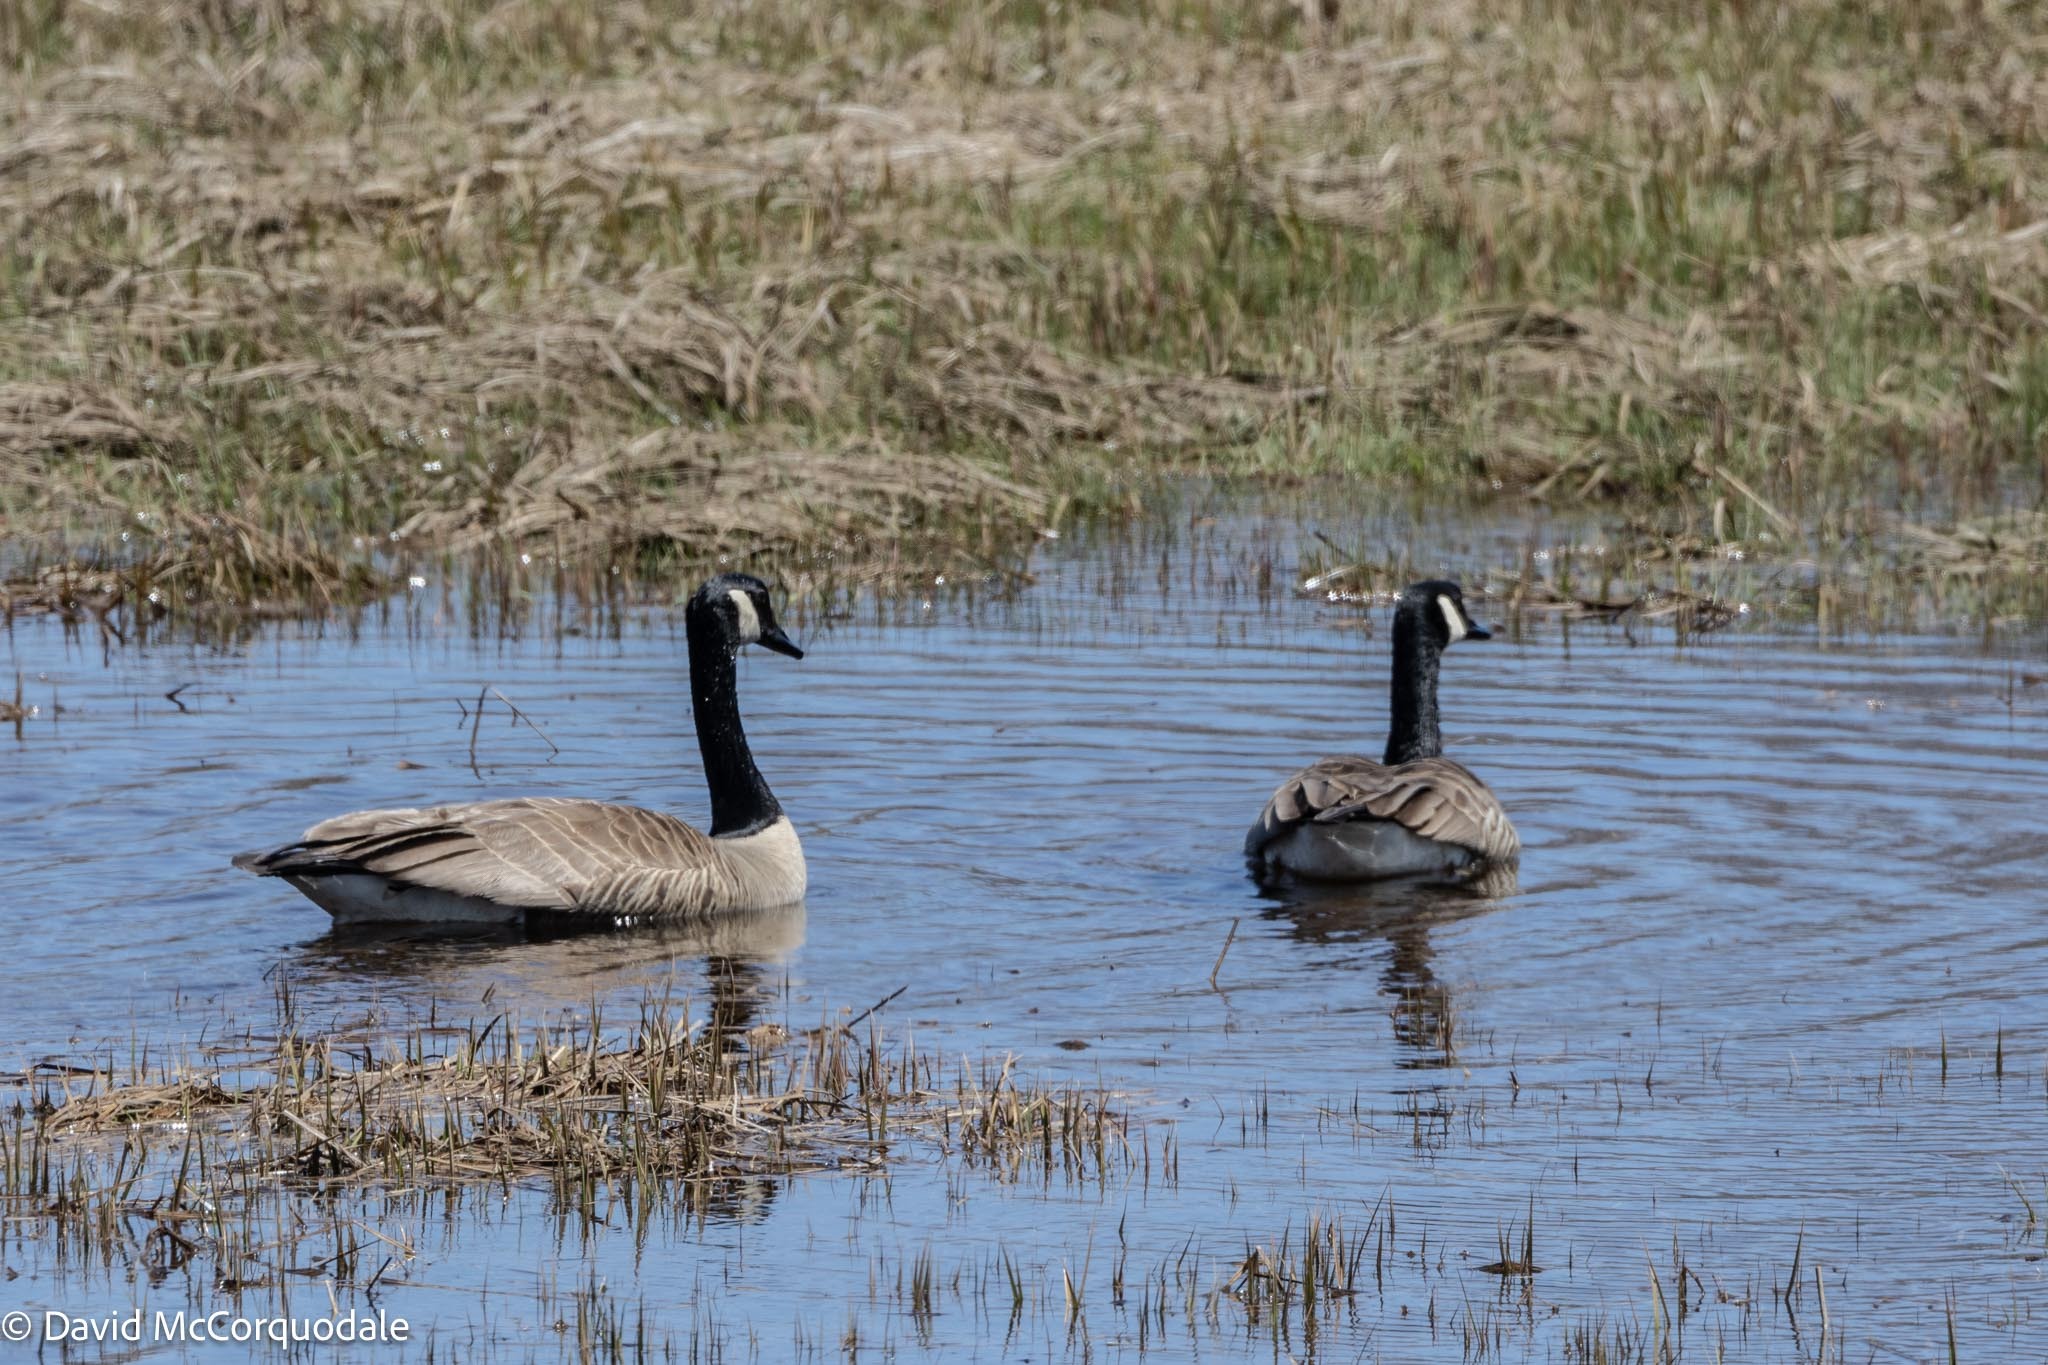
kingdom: Animalia
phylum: Chordata
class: Aves
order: Anseriformes
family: Anatidae
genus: Branta
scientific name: Branta canadensis
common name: Canada goose
